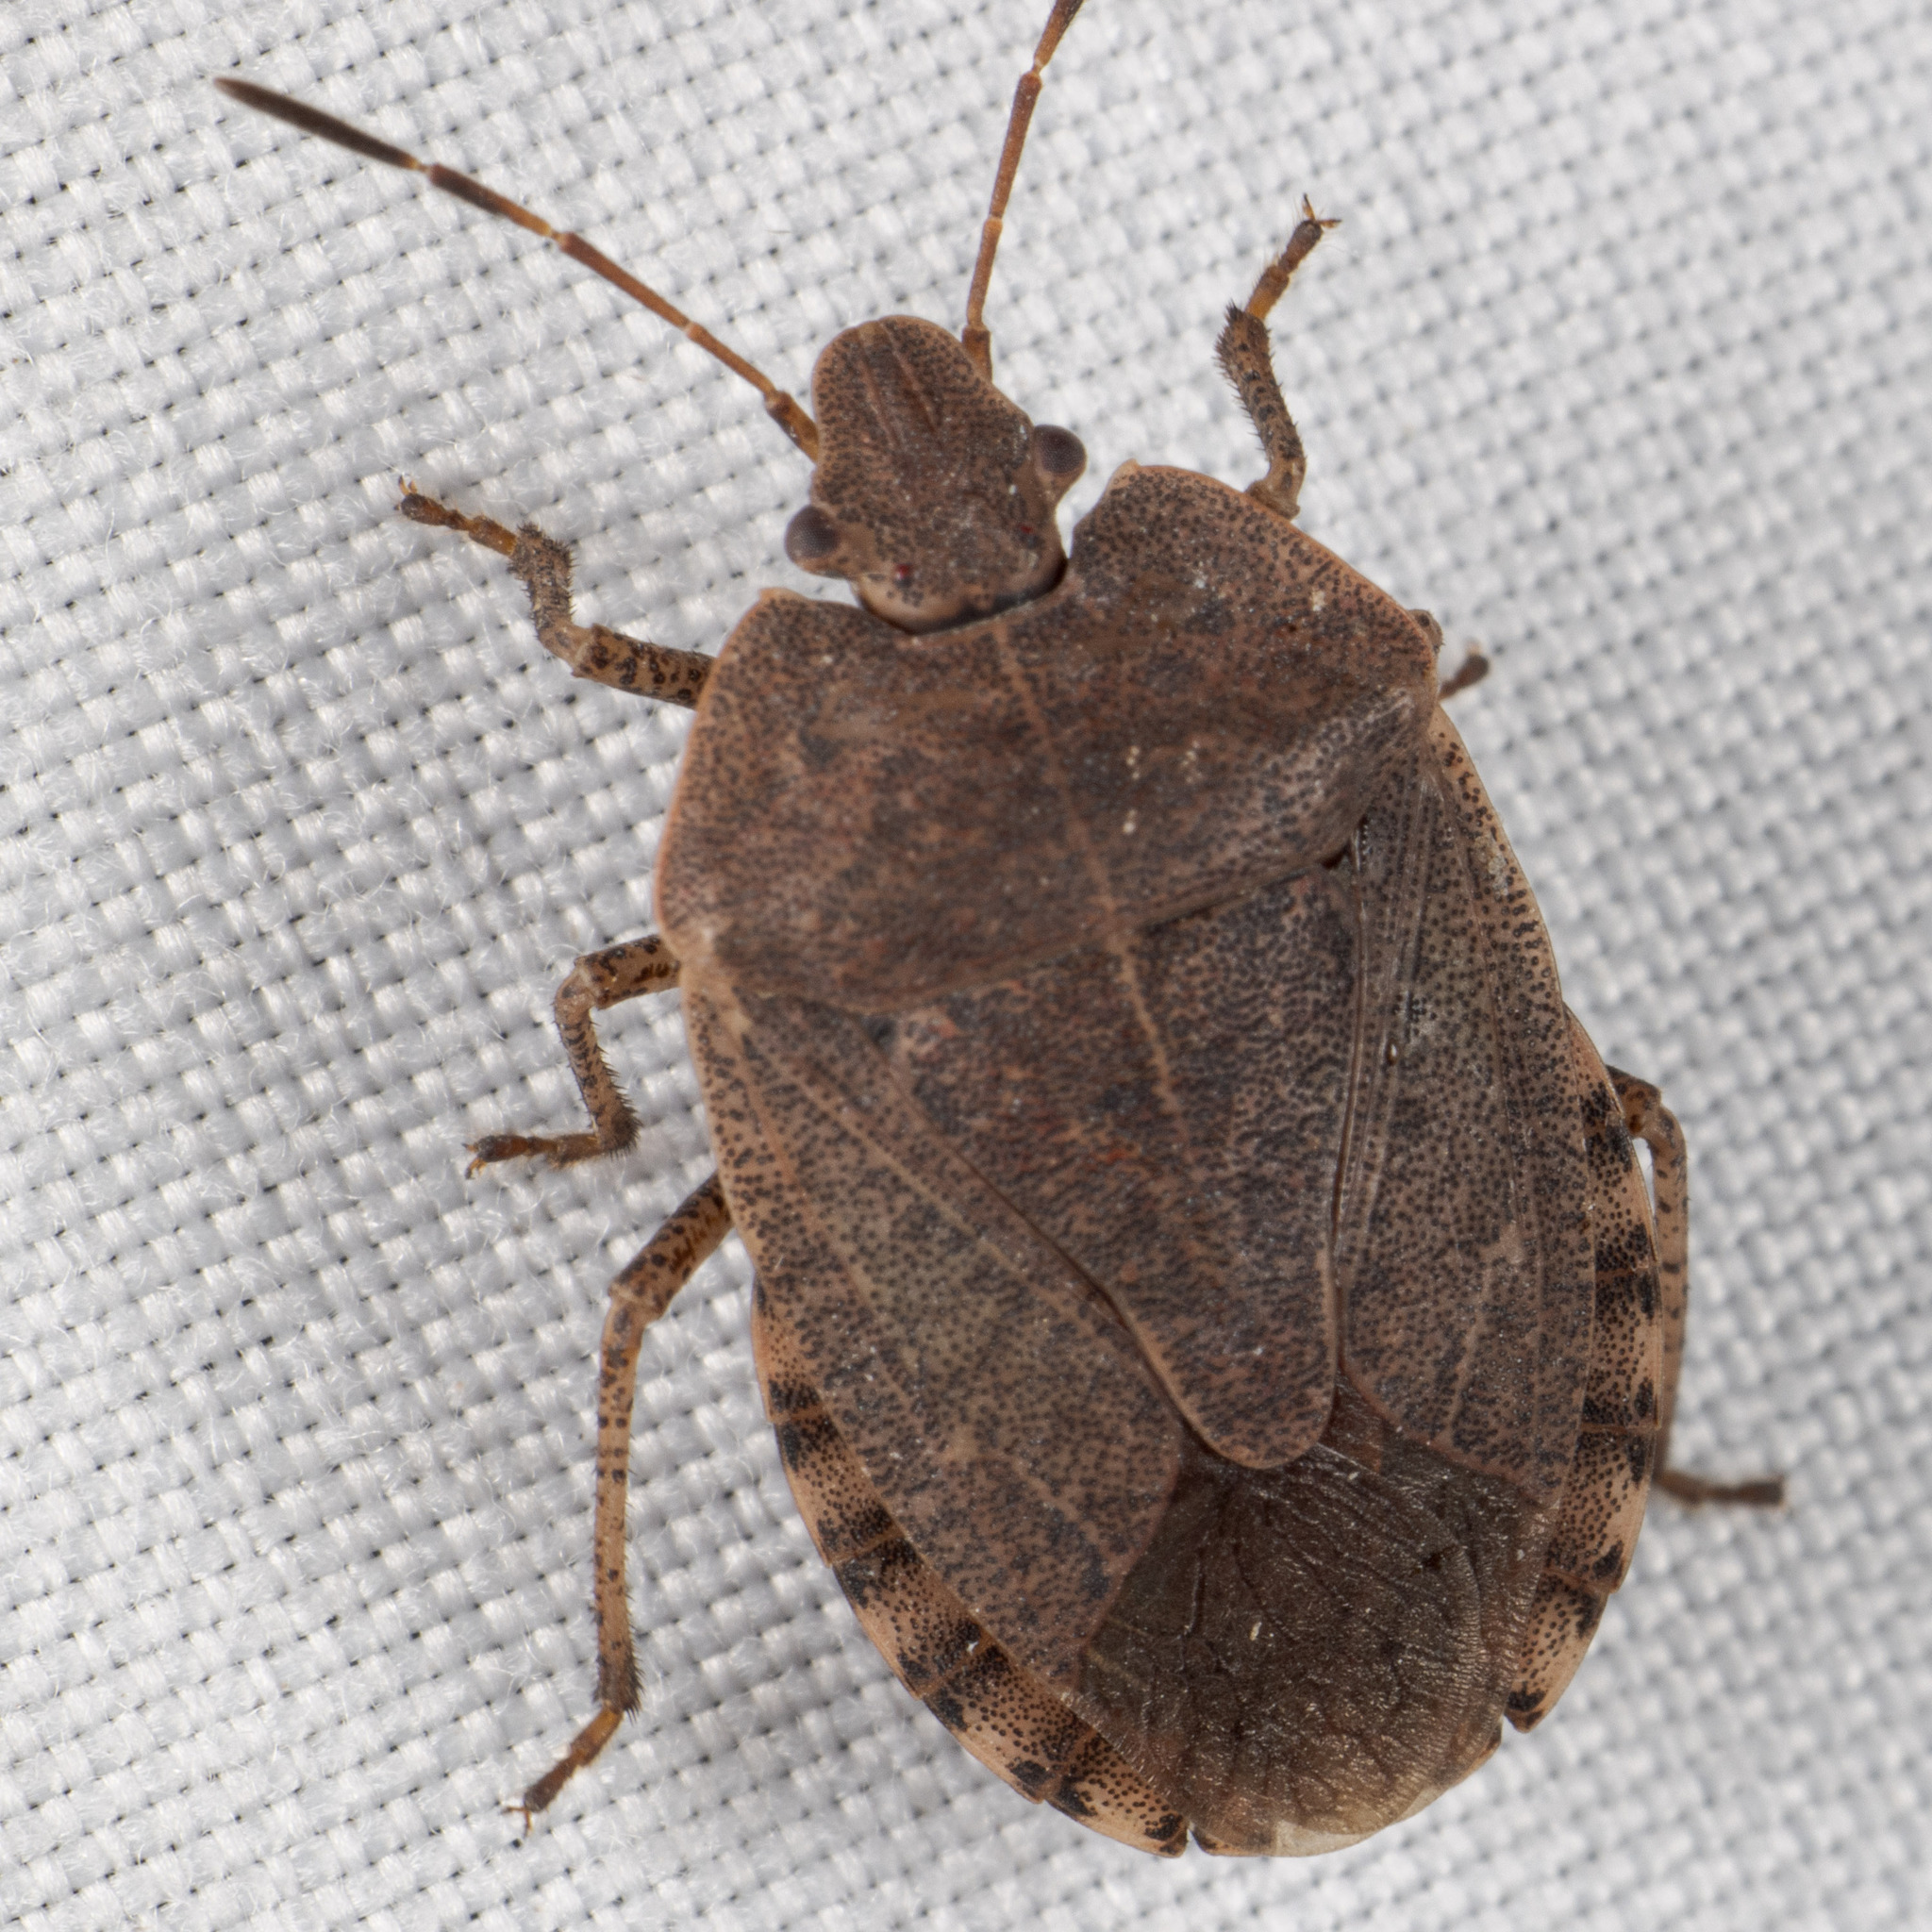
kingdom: Animalia
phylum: Arthropoda
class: Insecta
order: Hemiptera
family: Pentatomidae
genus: Menecles
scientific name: Menecles insertus
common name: Elf shoe stink bug
